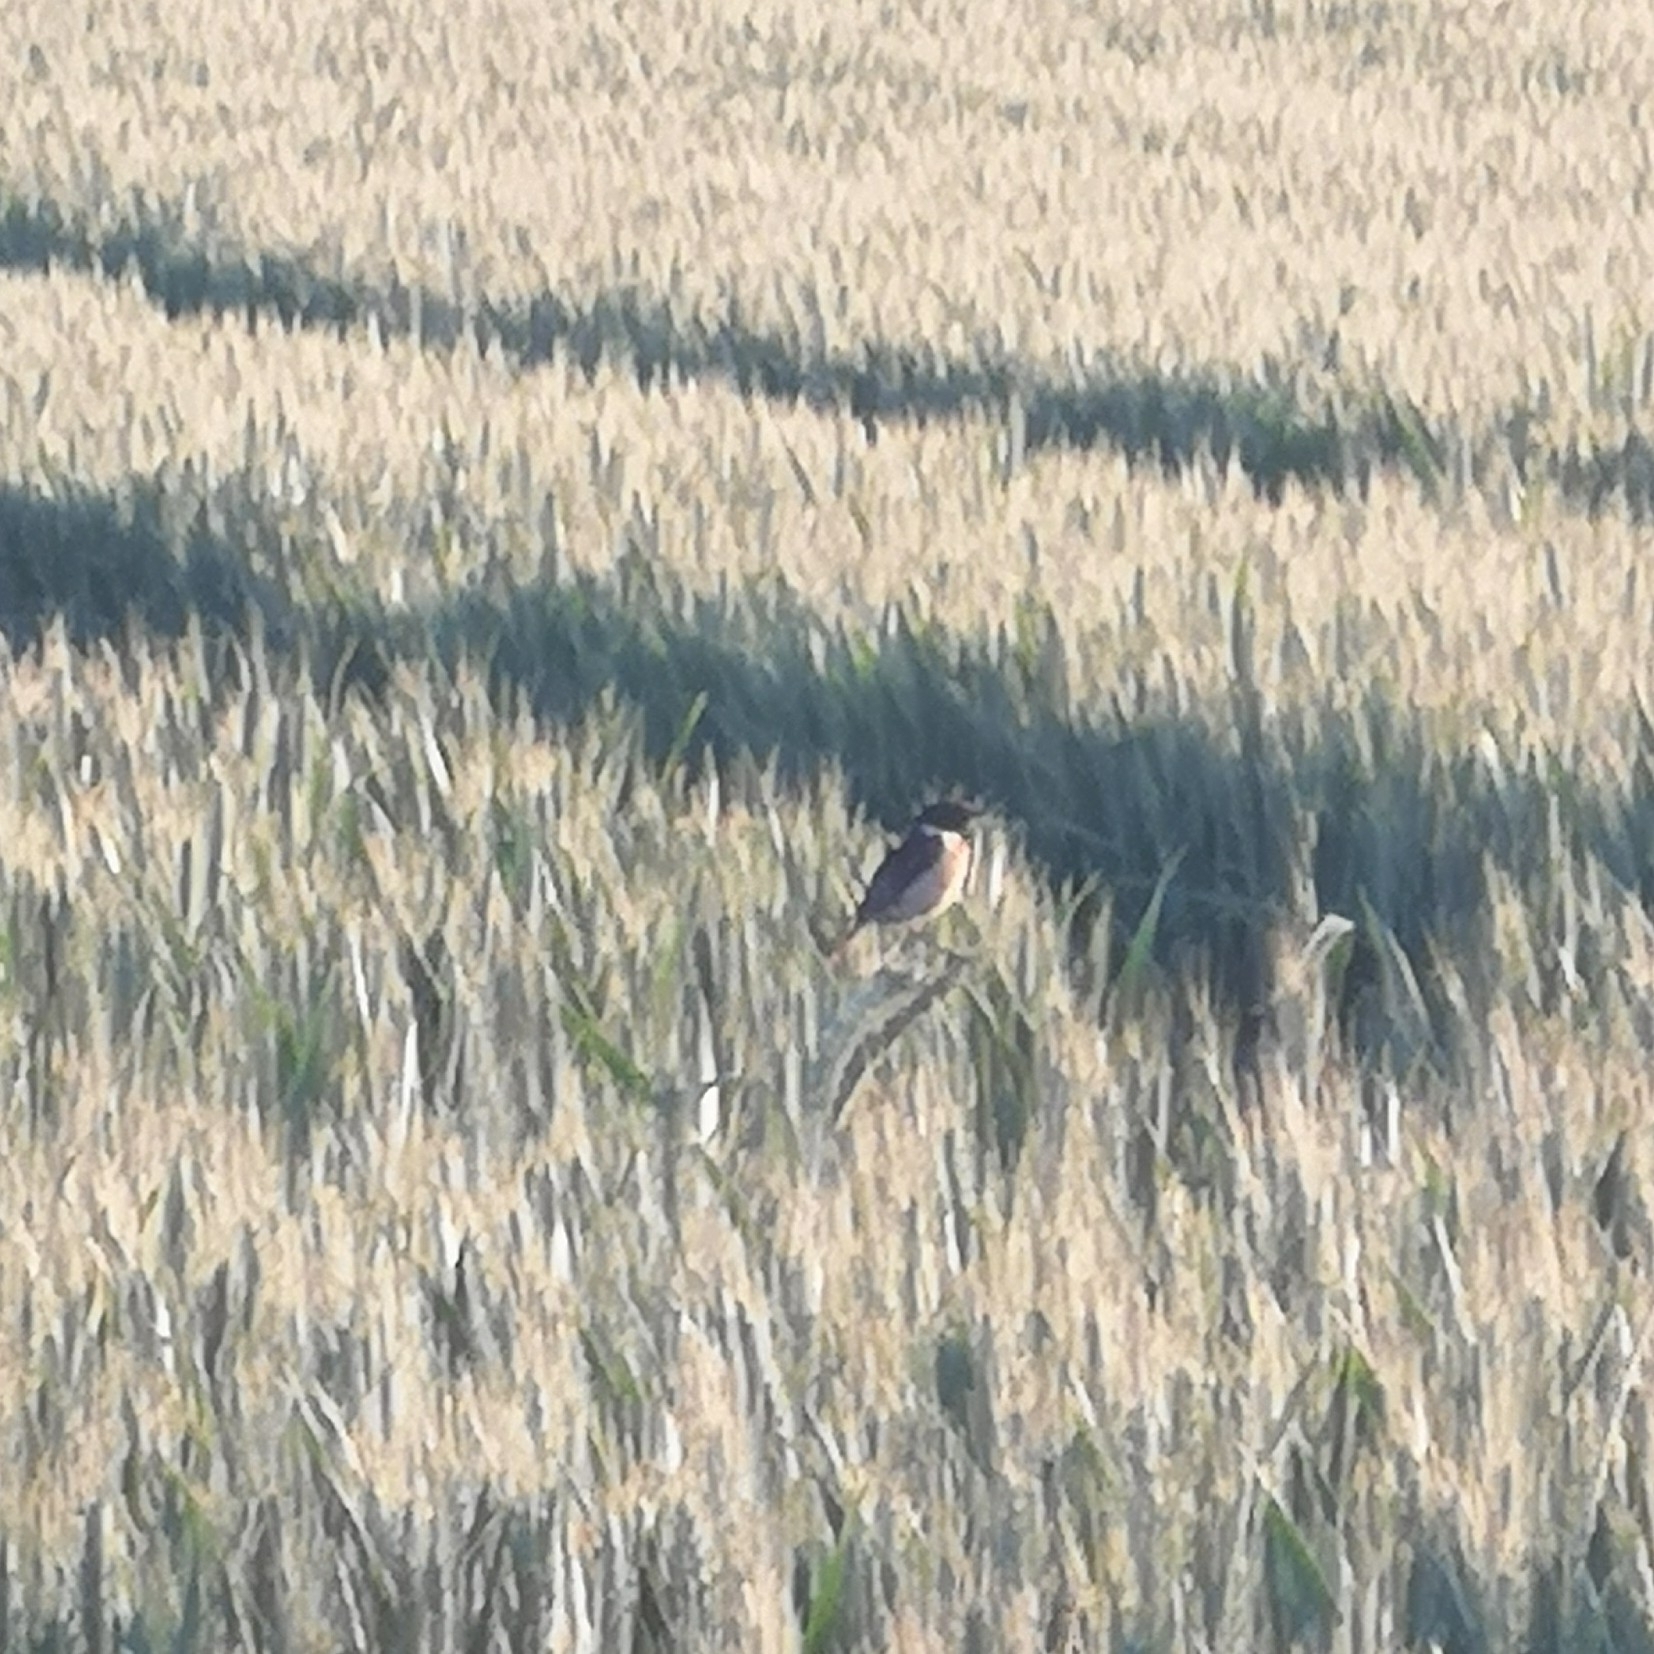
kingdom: Animalia
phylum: Chordata
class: Aves
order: Passeriformes
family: Muscicapidae
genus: Saxicola
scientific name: Saxicola rubicola
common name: European stonechat
